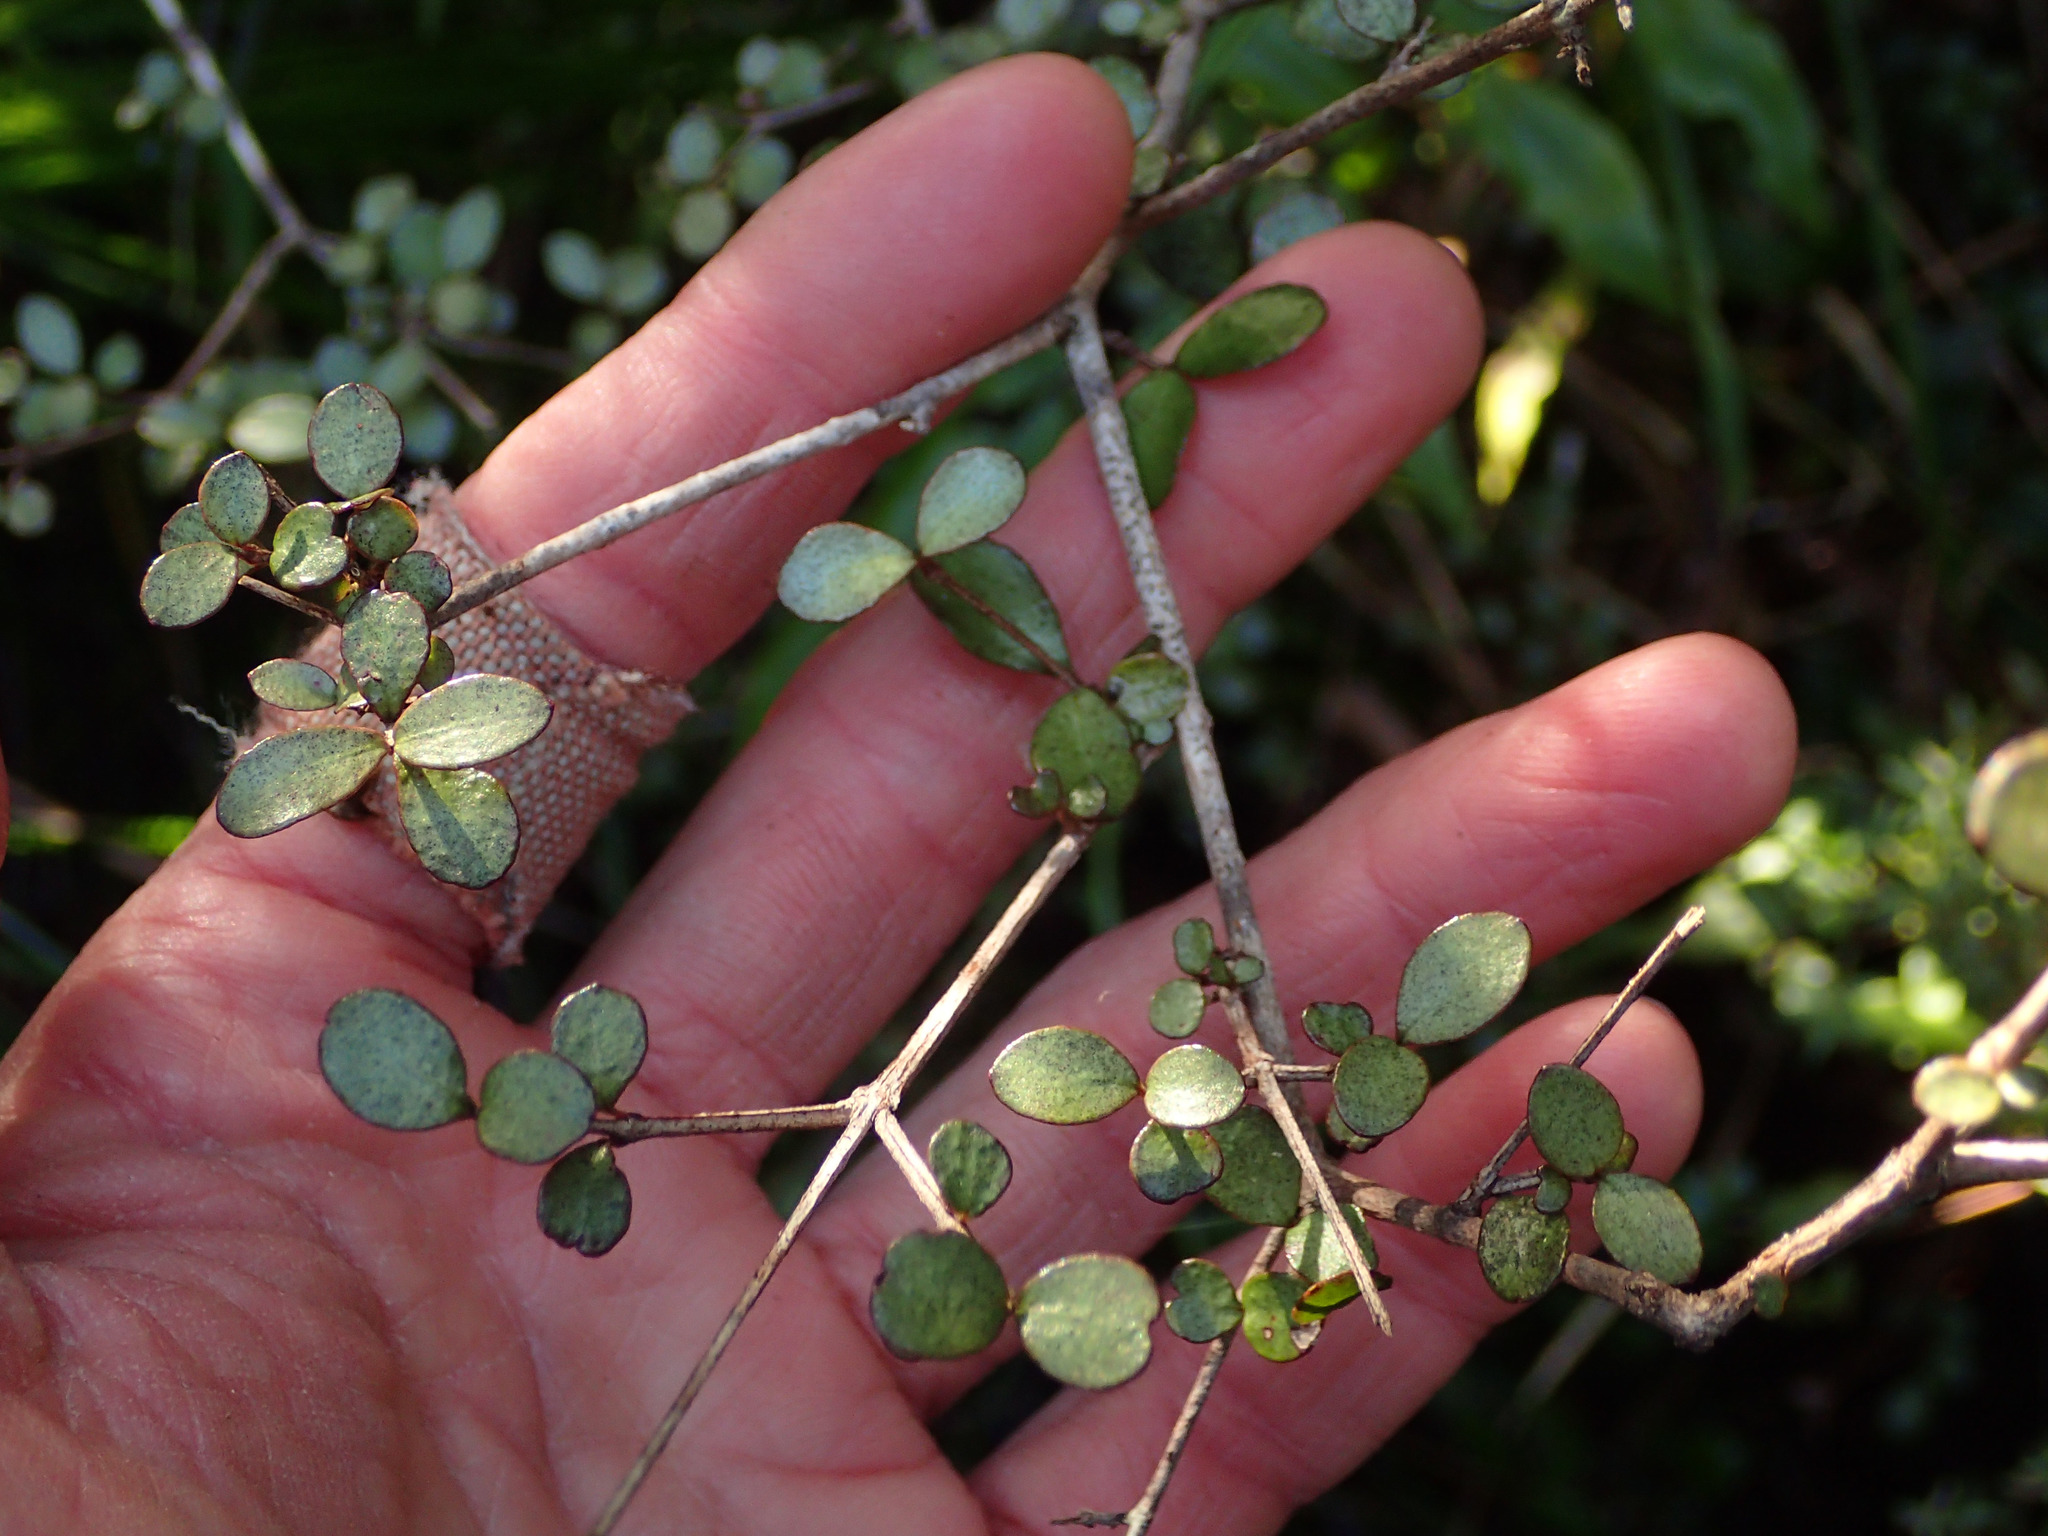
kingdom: Plantae
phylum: Tracheophyta
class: Magnoliopsida
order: Myrtales
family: Myrtaceae
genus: Neomyrtus
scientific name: Neomyrtus pedunculata
